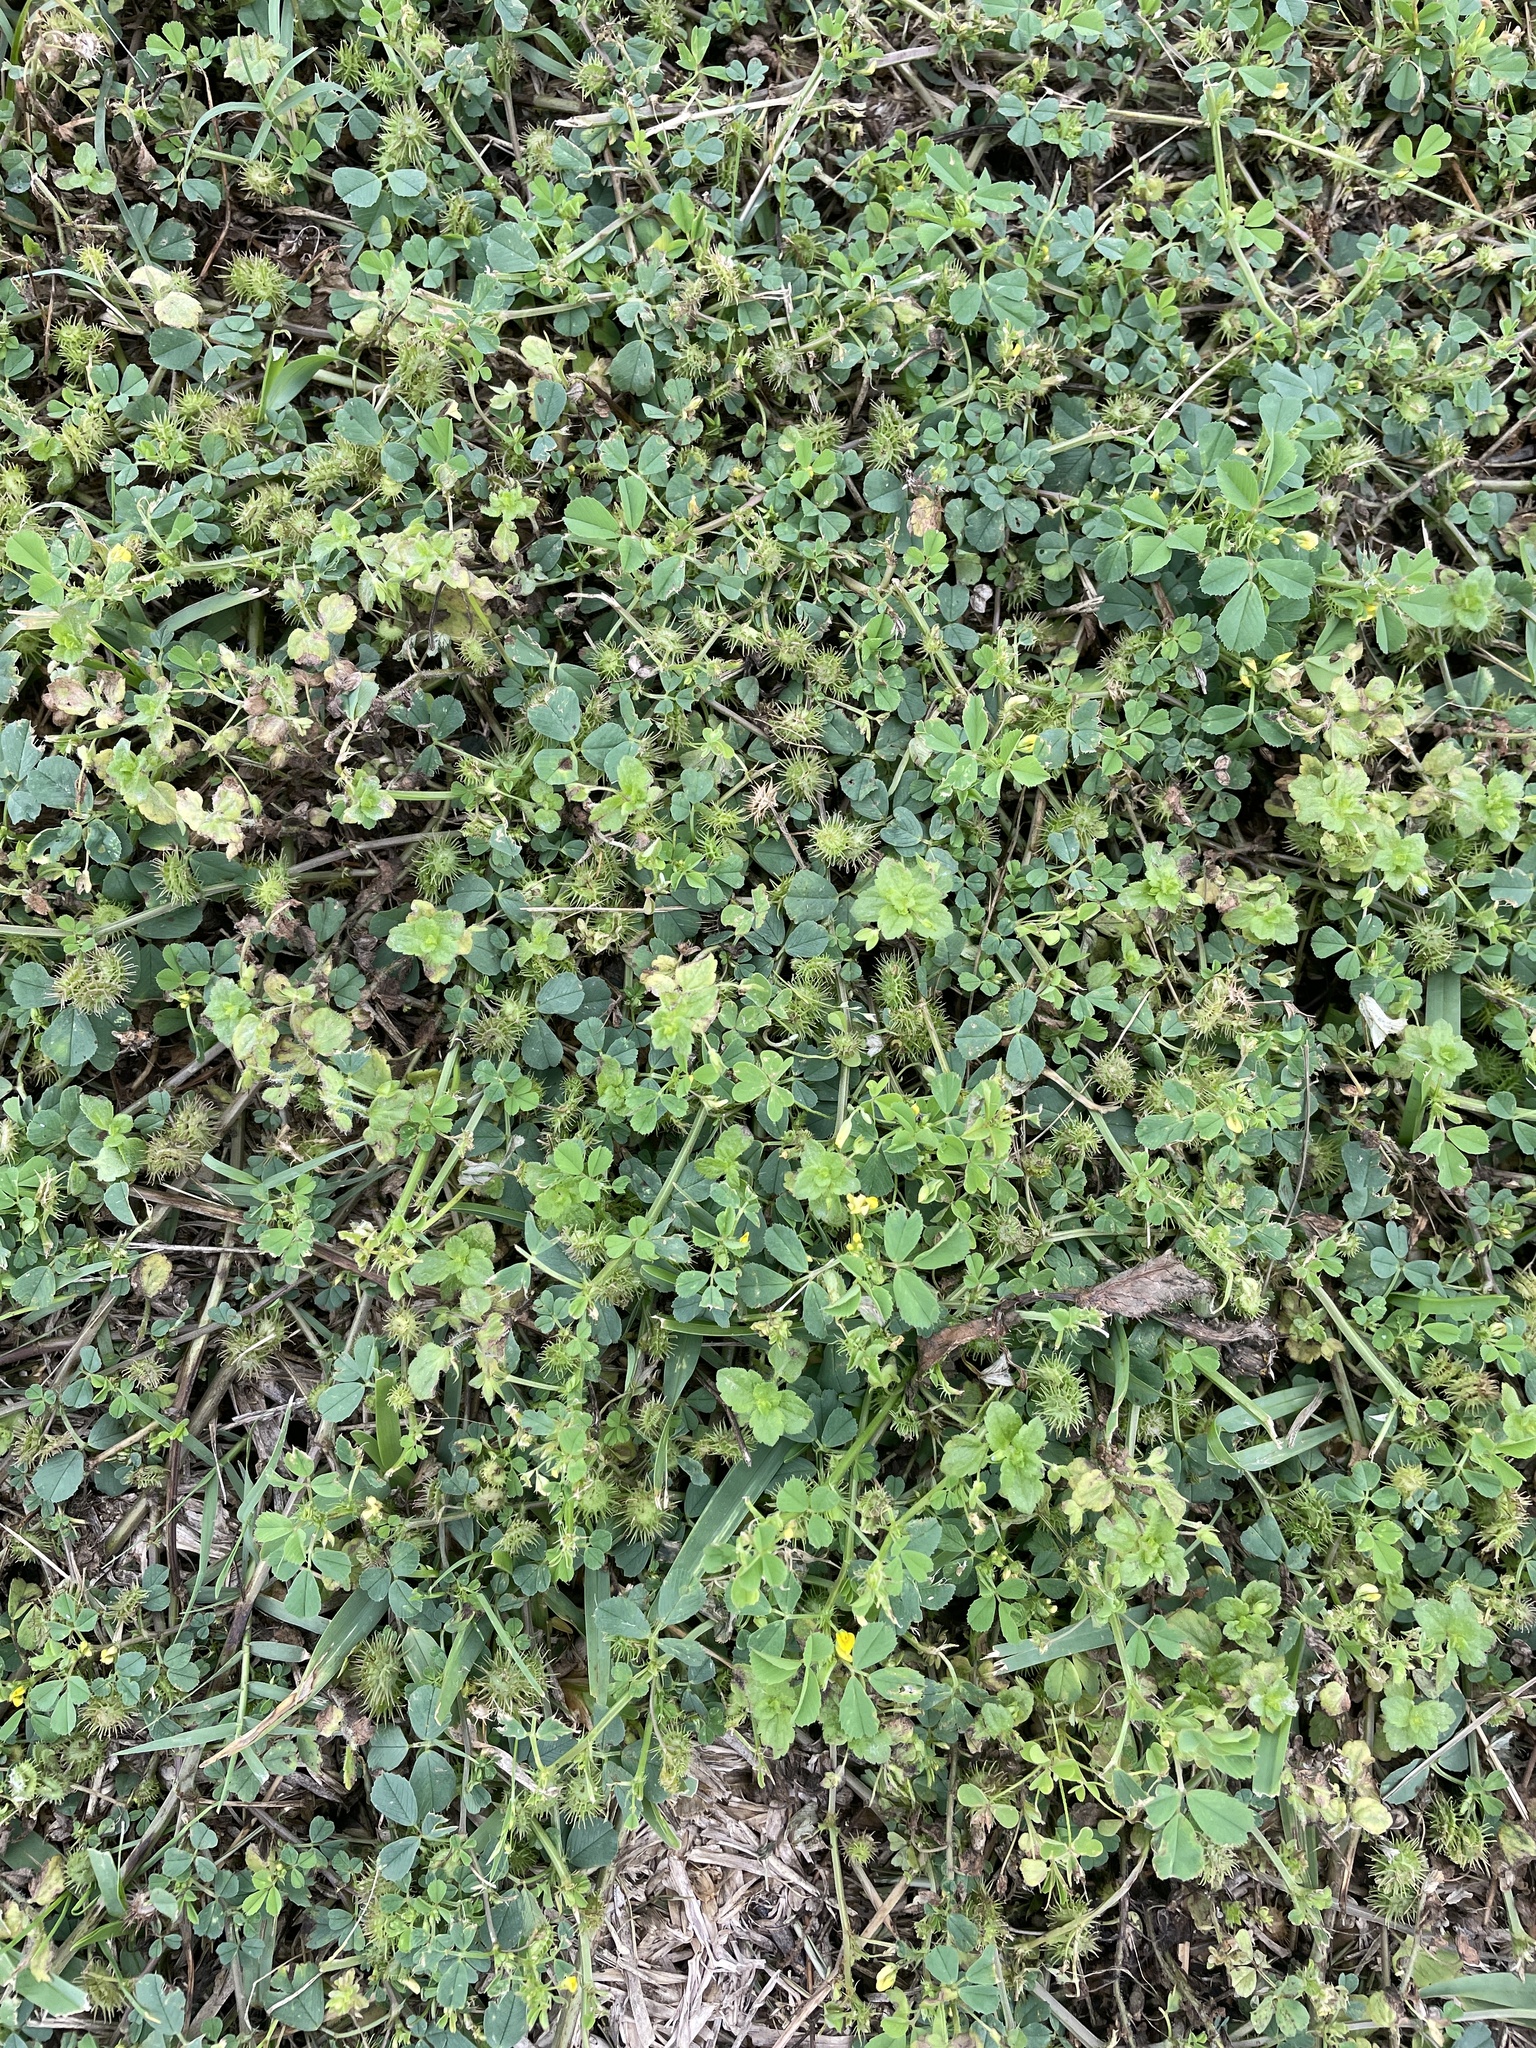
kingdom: Plantae
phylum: Tracheophyta
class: Magnoliopsida
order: Fabales
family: Fabaceae
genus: Medicago
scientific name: Medicago polymorpha
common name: Burclover
